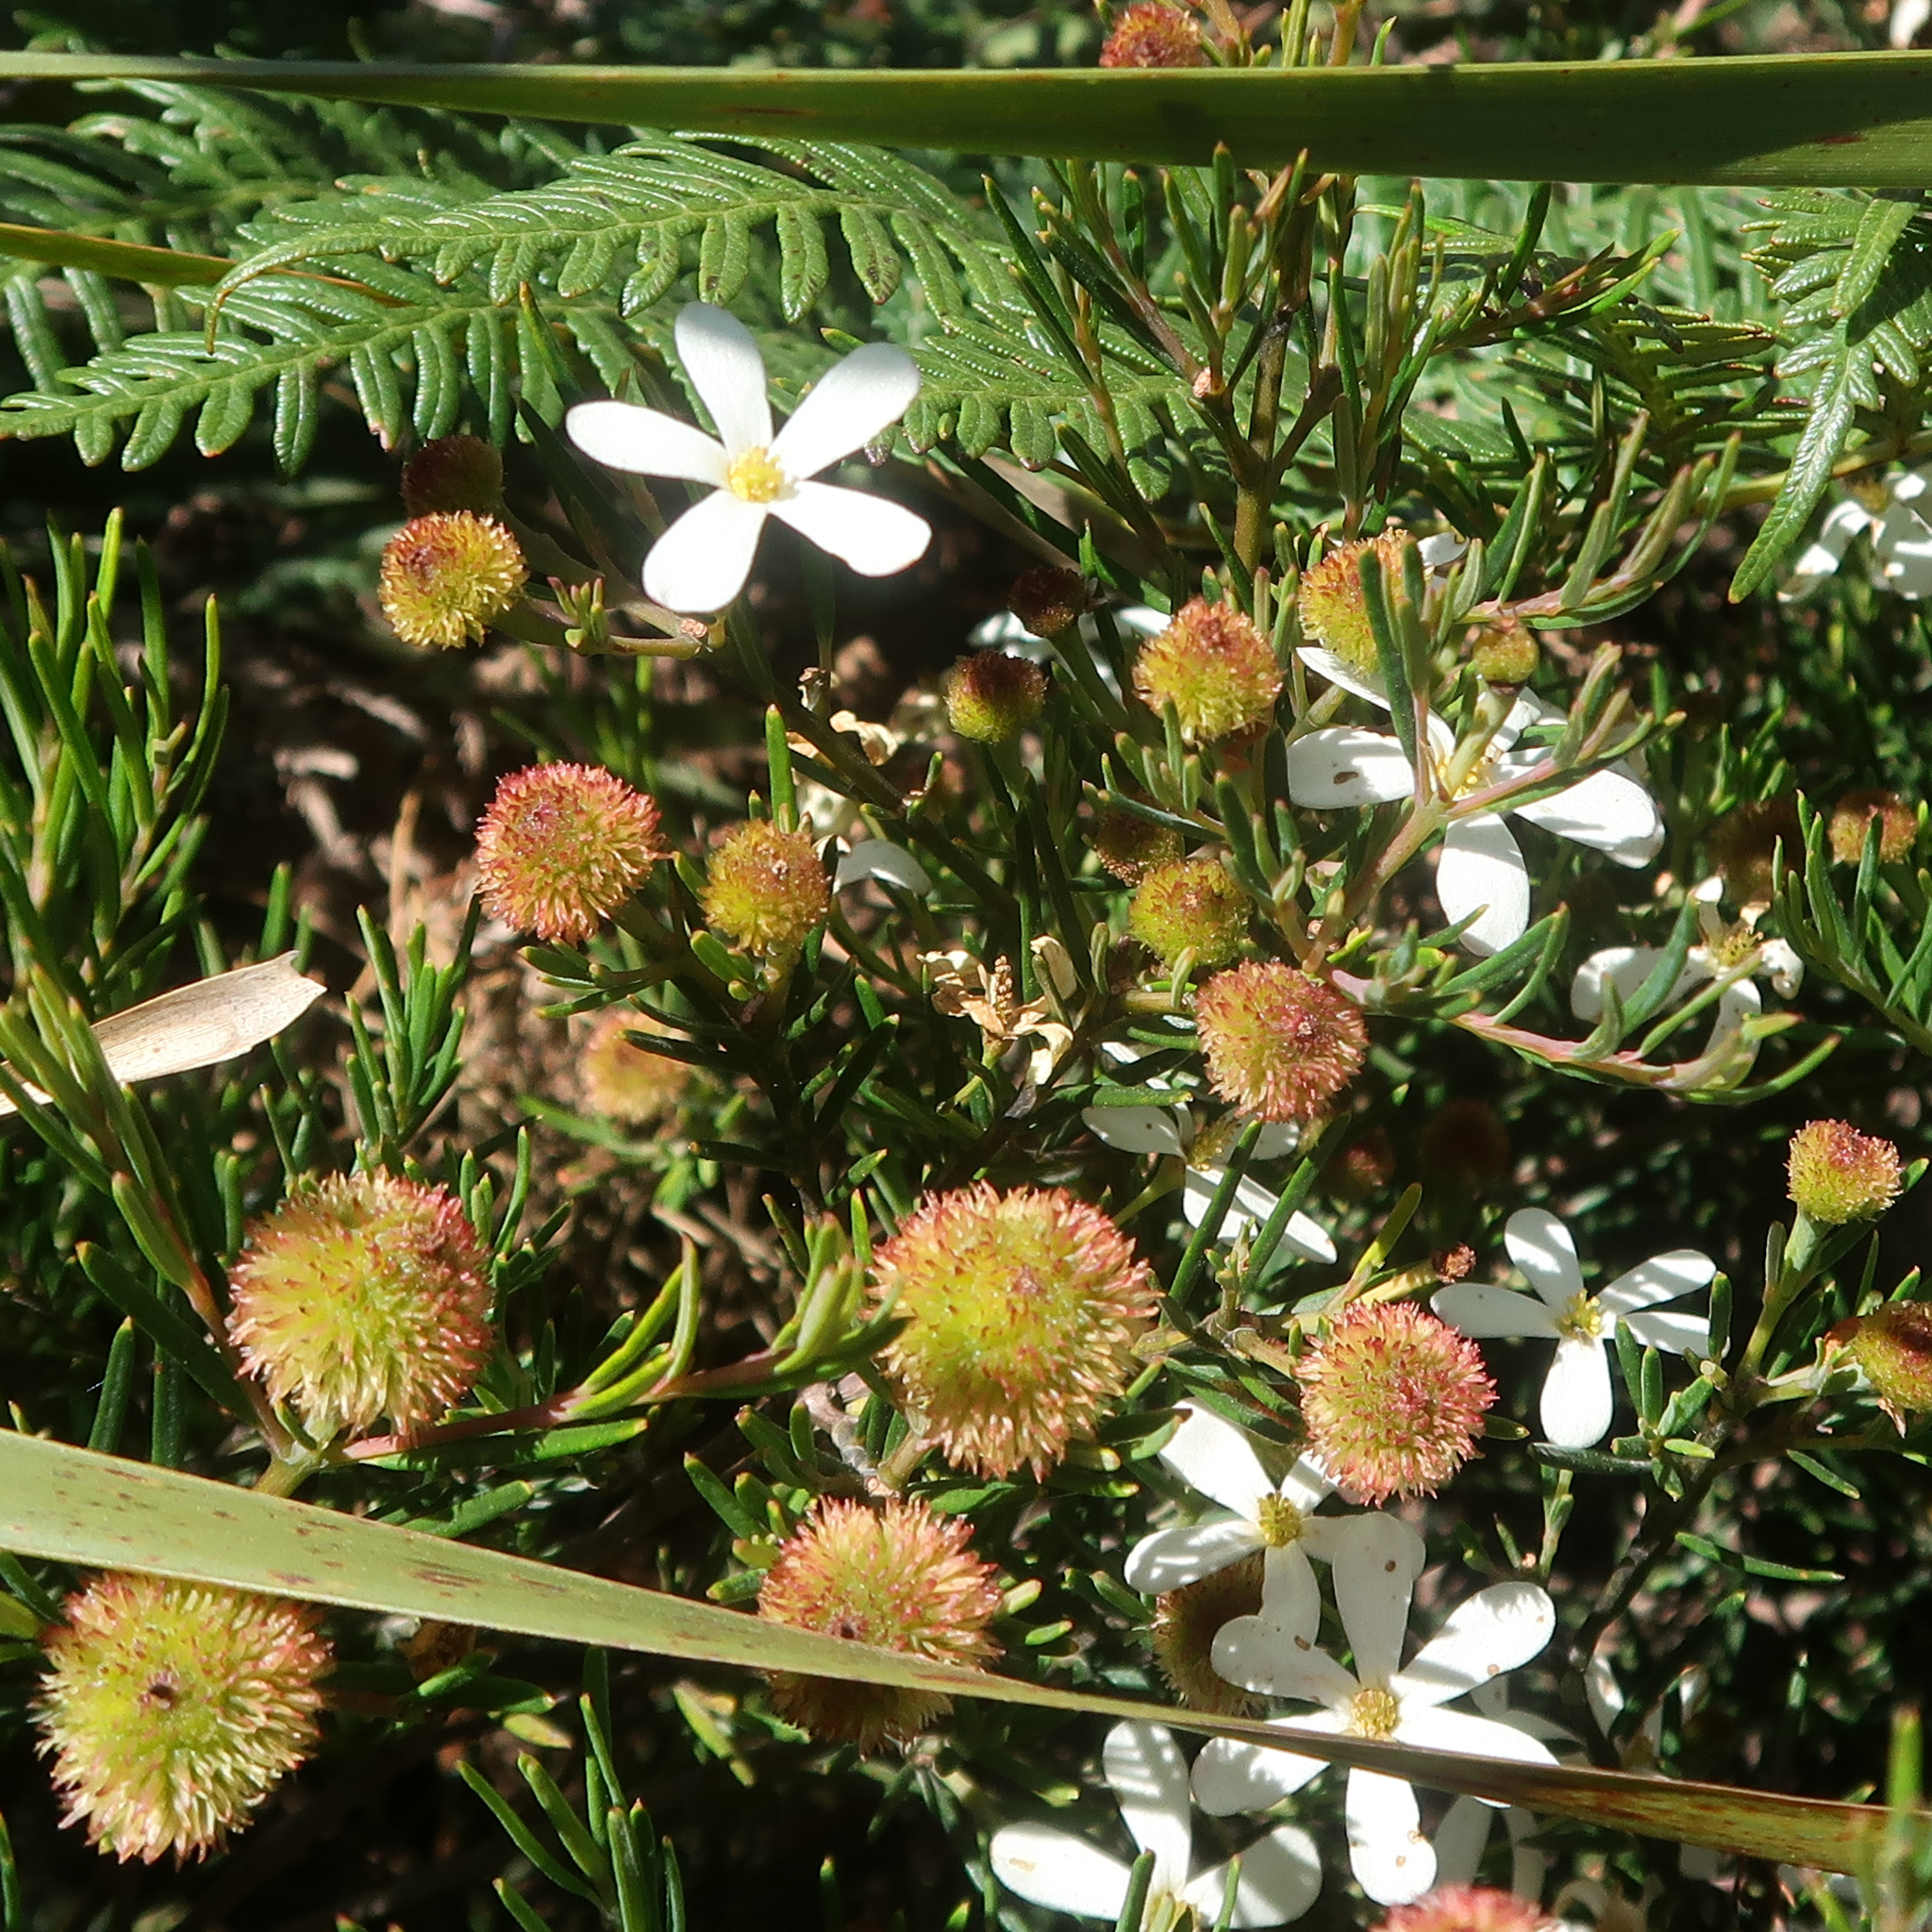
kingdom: Plantae
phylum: Tracheophyta
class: Magnoliopsida
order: Malpighiales
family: Euphorbiaceae
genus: Ricinocarpos
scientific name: Ricinocarpos pinifolius
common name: Weddingbush
